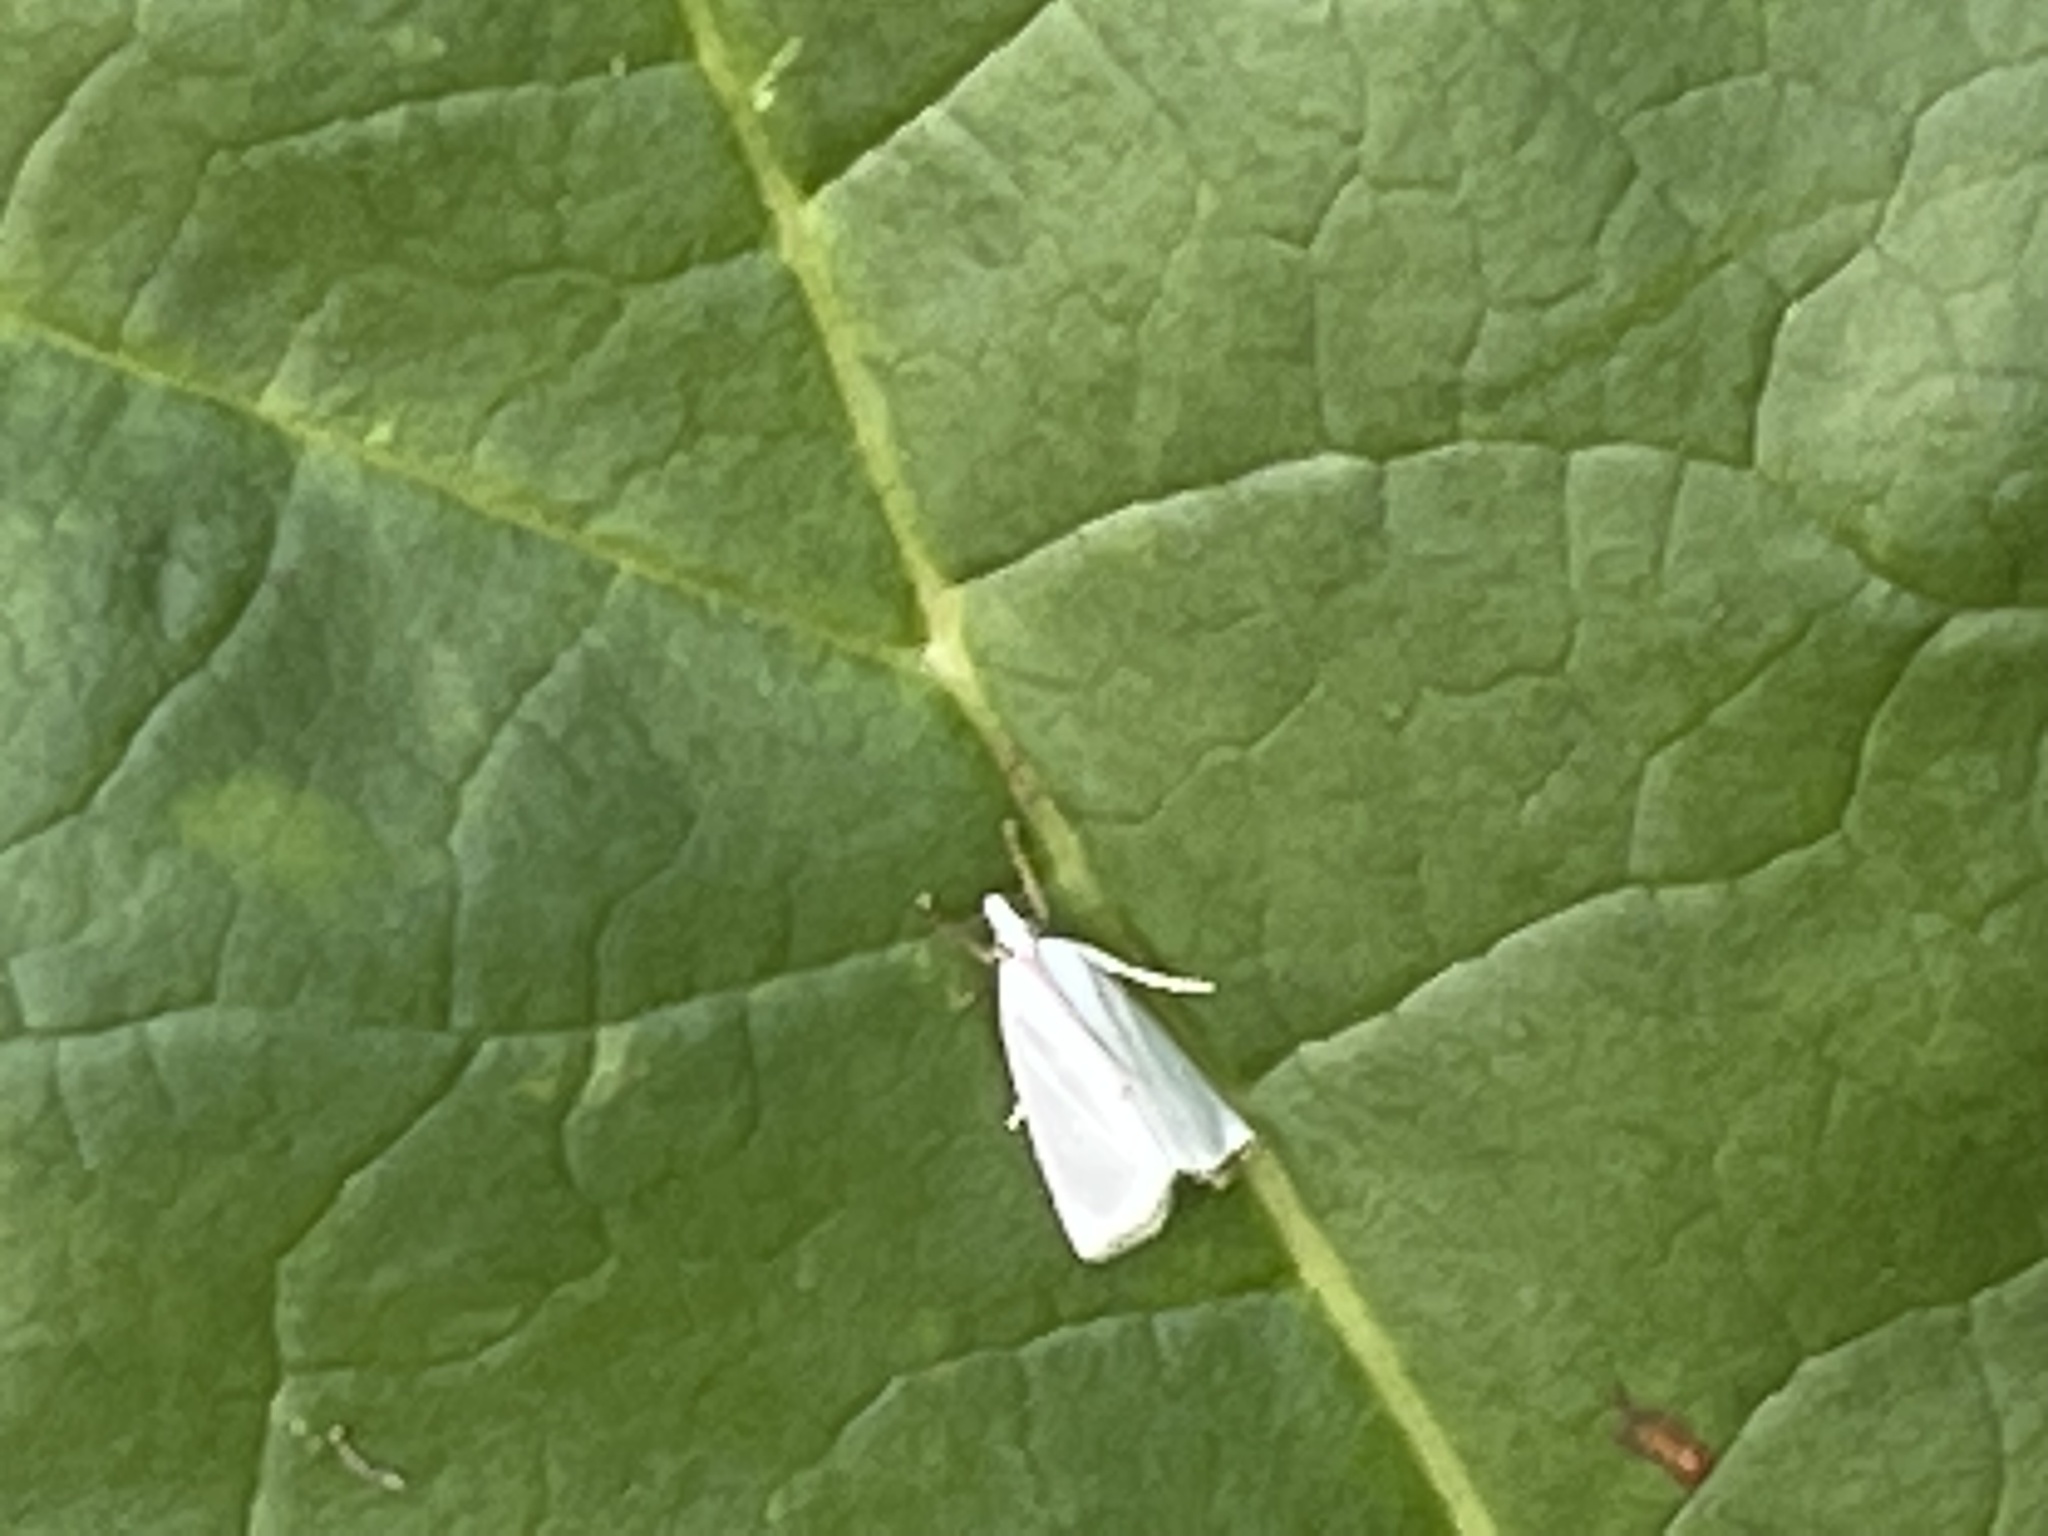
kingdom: Animalia
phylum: Arthropoda
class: Insecta
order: Lepidoptera
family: Crambidae
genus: Argyria
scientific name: Argyria nivalis
